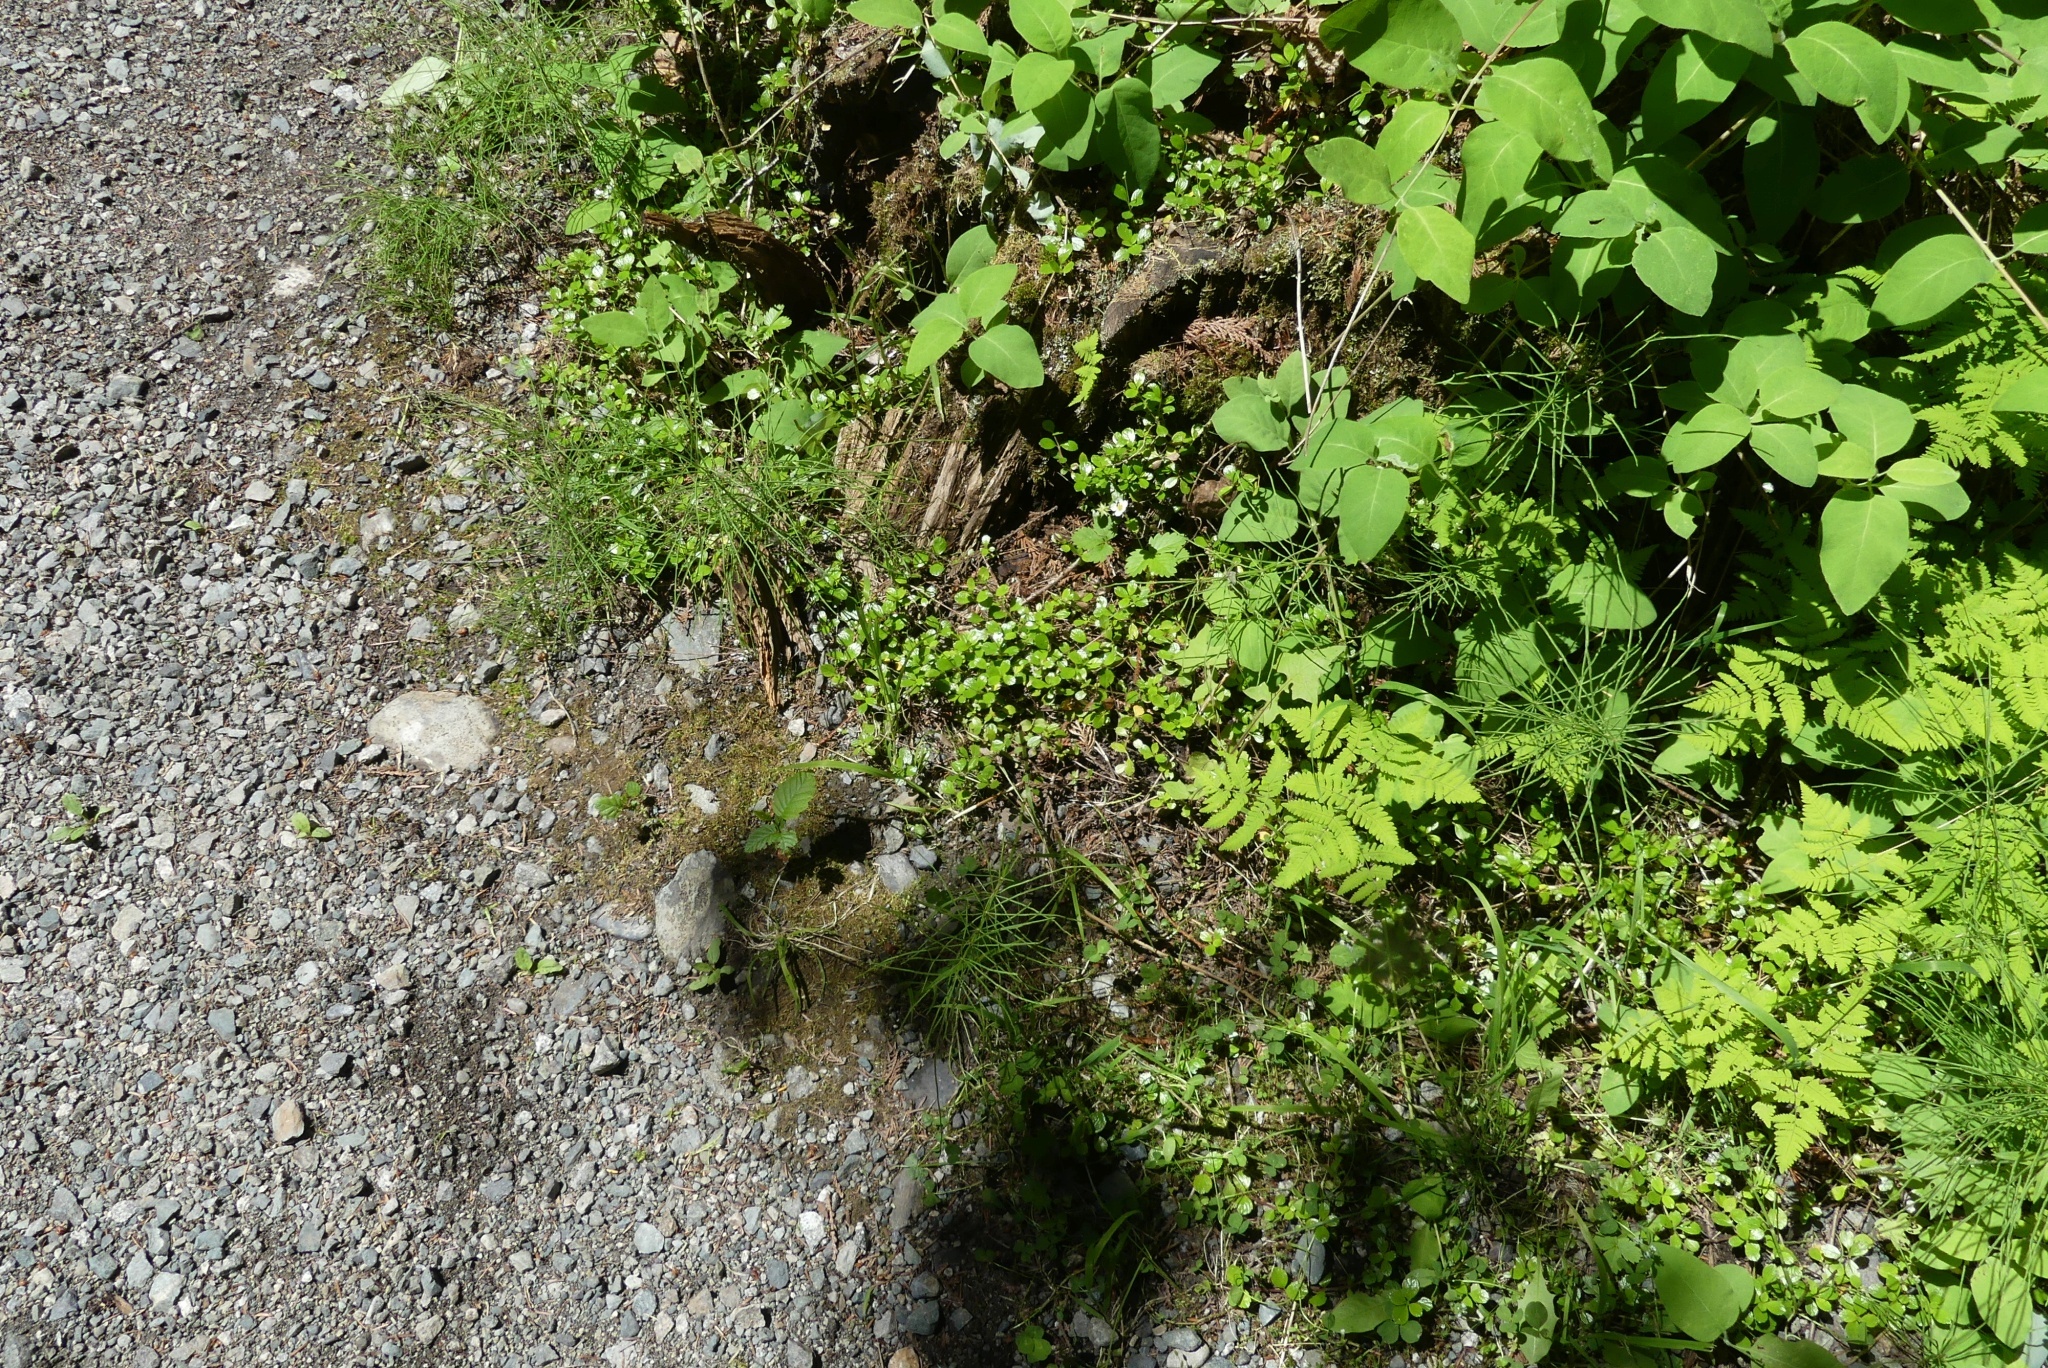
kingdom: Plantae
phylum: Tracheophyta
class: Magnoliopsida
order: Dipsacales
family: Caprifoliaceae
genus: Linnaea
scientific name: Linnaea borealis
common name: Twinflower
